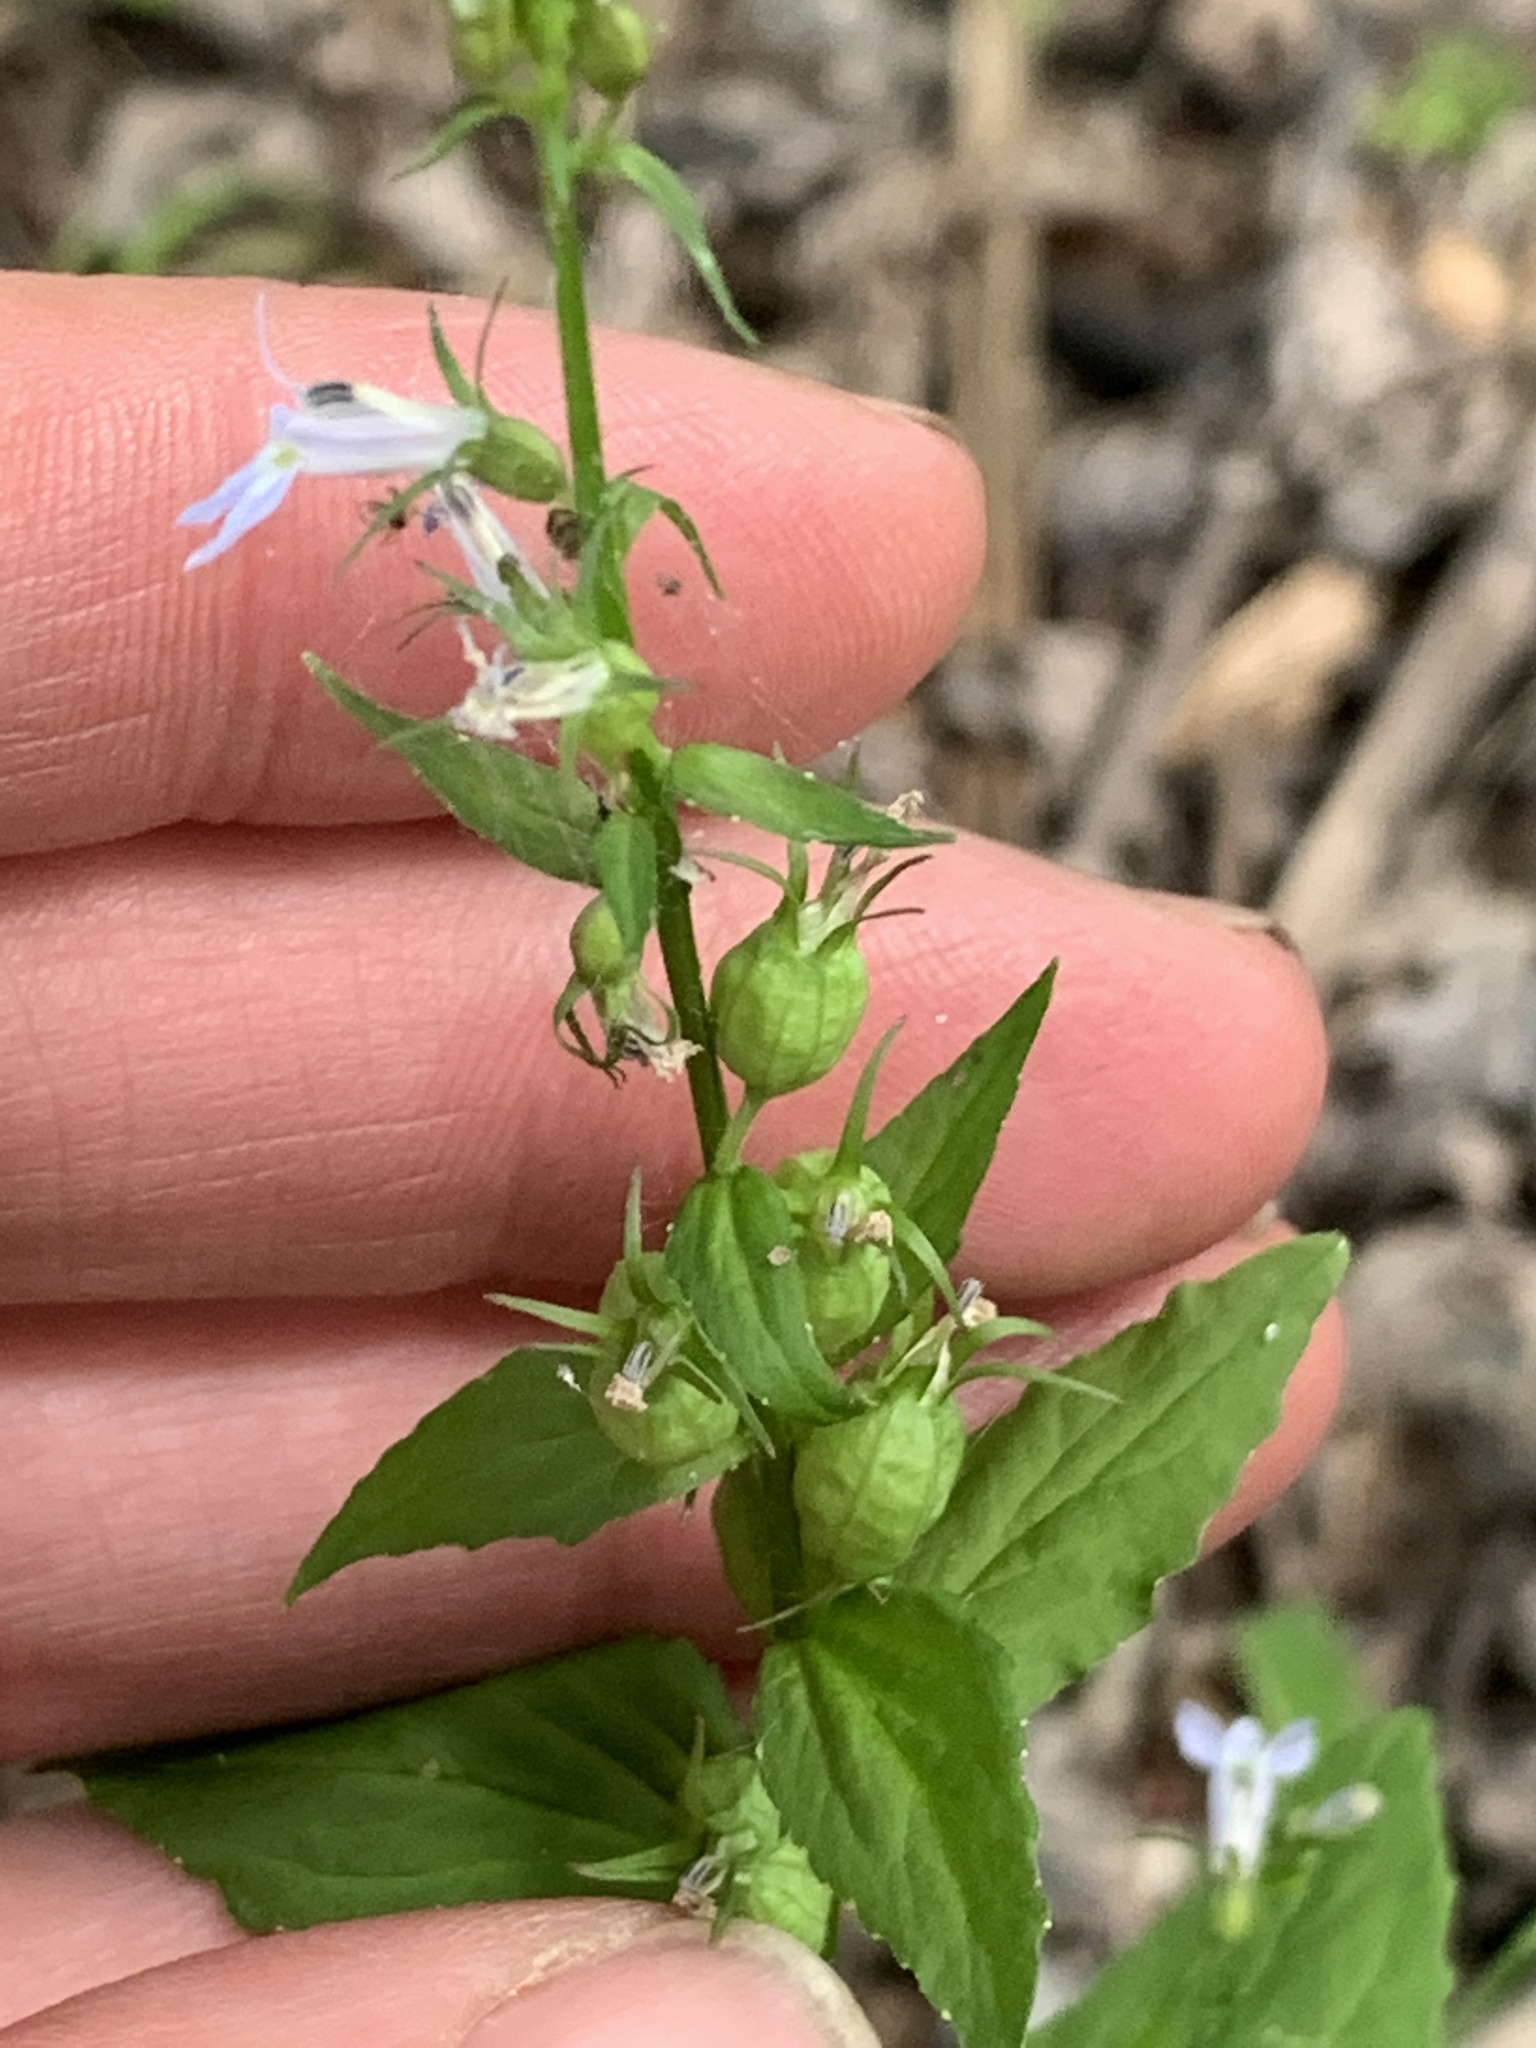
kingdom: Plantae
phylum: Tracheophyta
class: Magnoliopsida
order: Asterales
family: Campanulaceae
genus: Lobelia
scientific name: Lobelia inflata
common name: Indian tobacco
